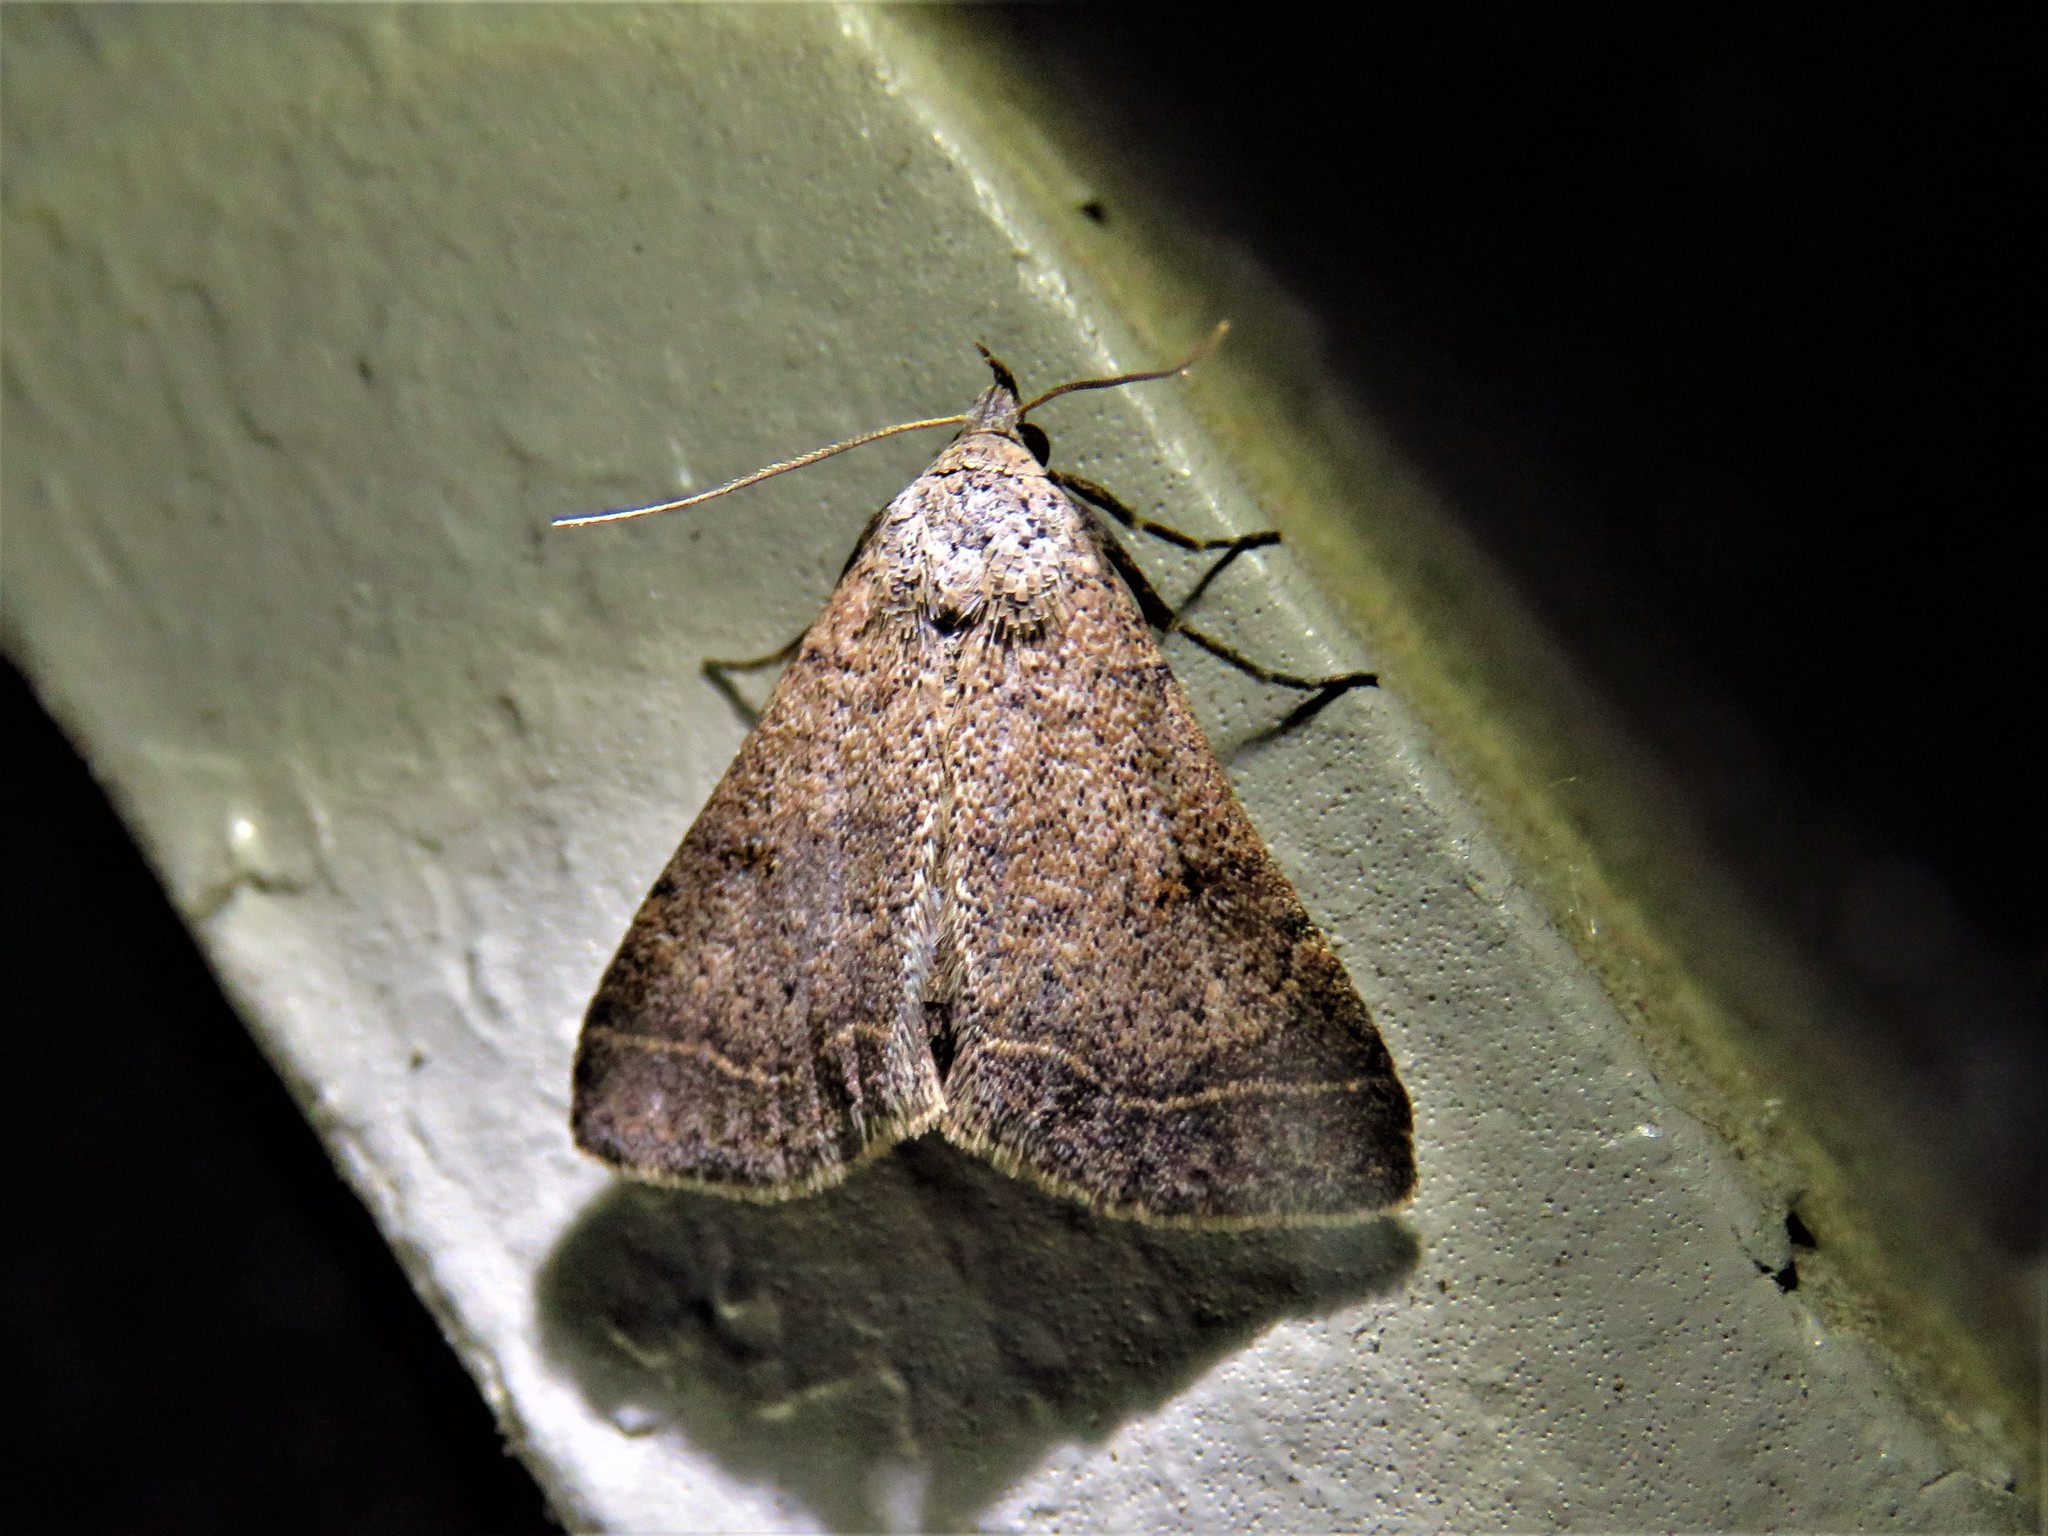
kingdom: Animalia
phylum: Arthropoda
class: Insecta
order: Lepidoptera
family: Erebidae
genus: Bleptina
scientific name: Bleptina caradrinalis
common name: Bent-winged owlet
